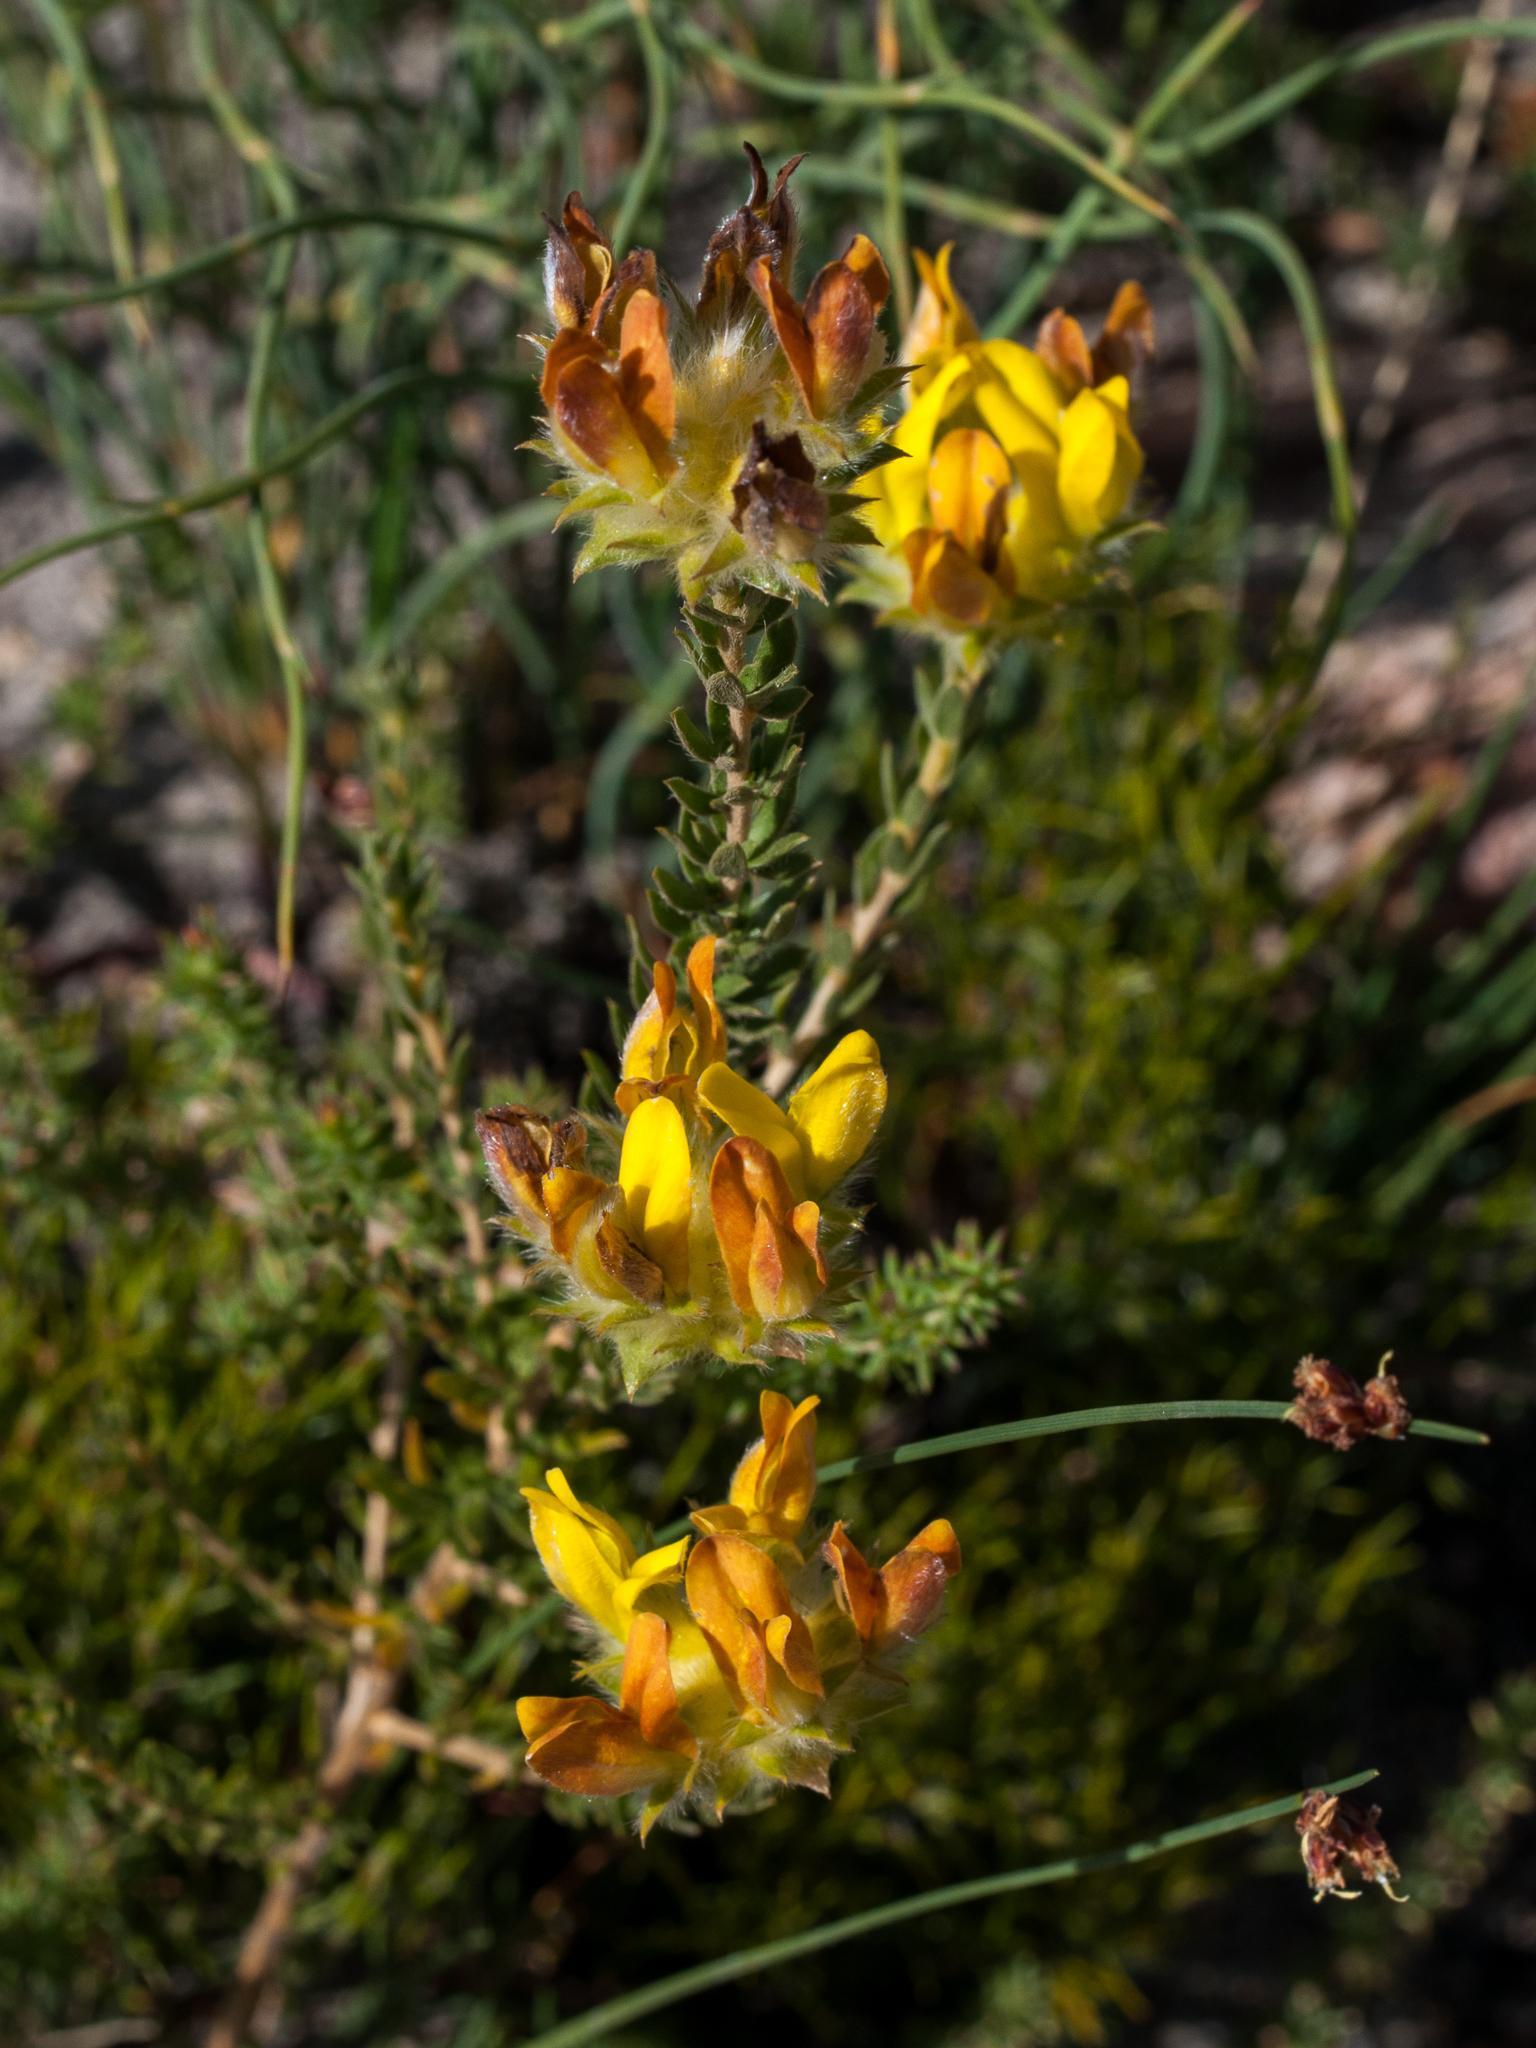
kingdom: Plantae
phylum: Tracheophyta
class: Magnoliopsida
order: Fabales
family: Fabaceae
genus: Aspalathus
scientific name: Aspalathus tridentata
